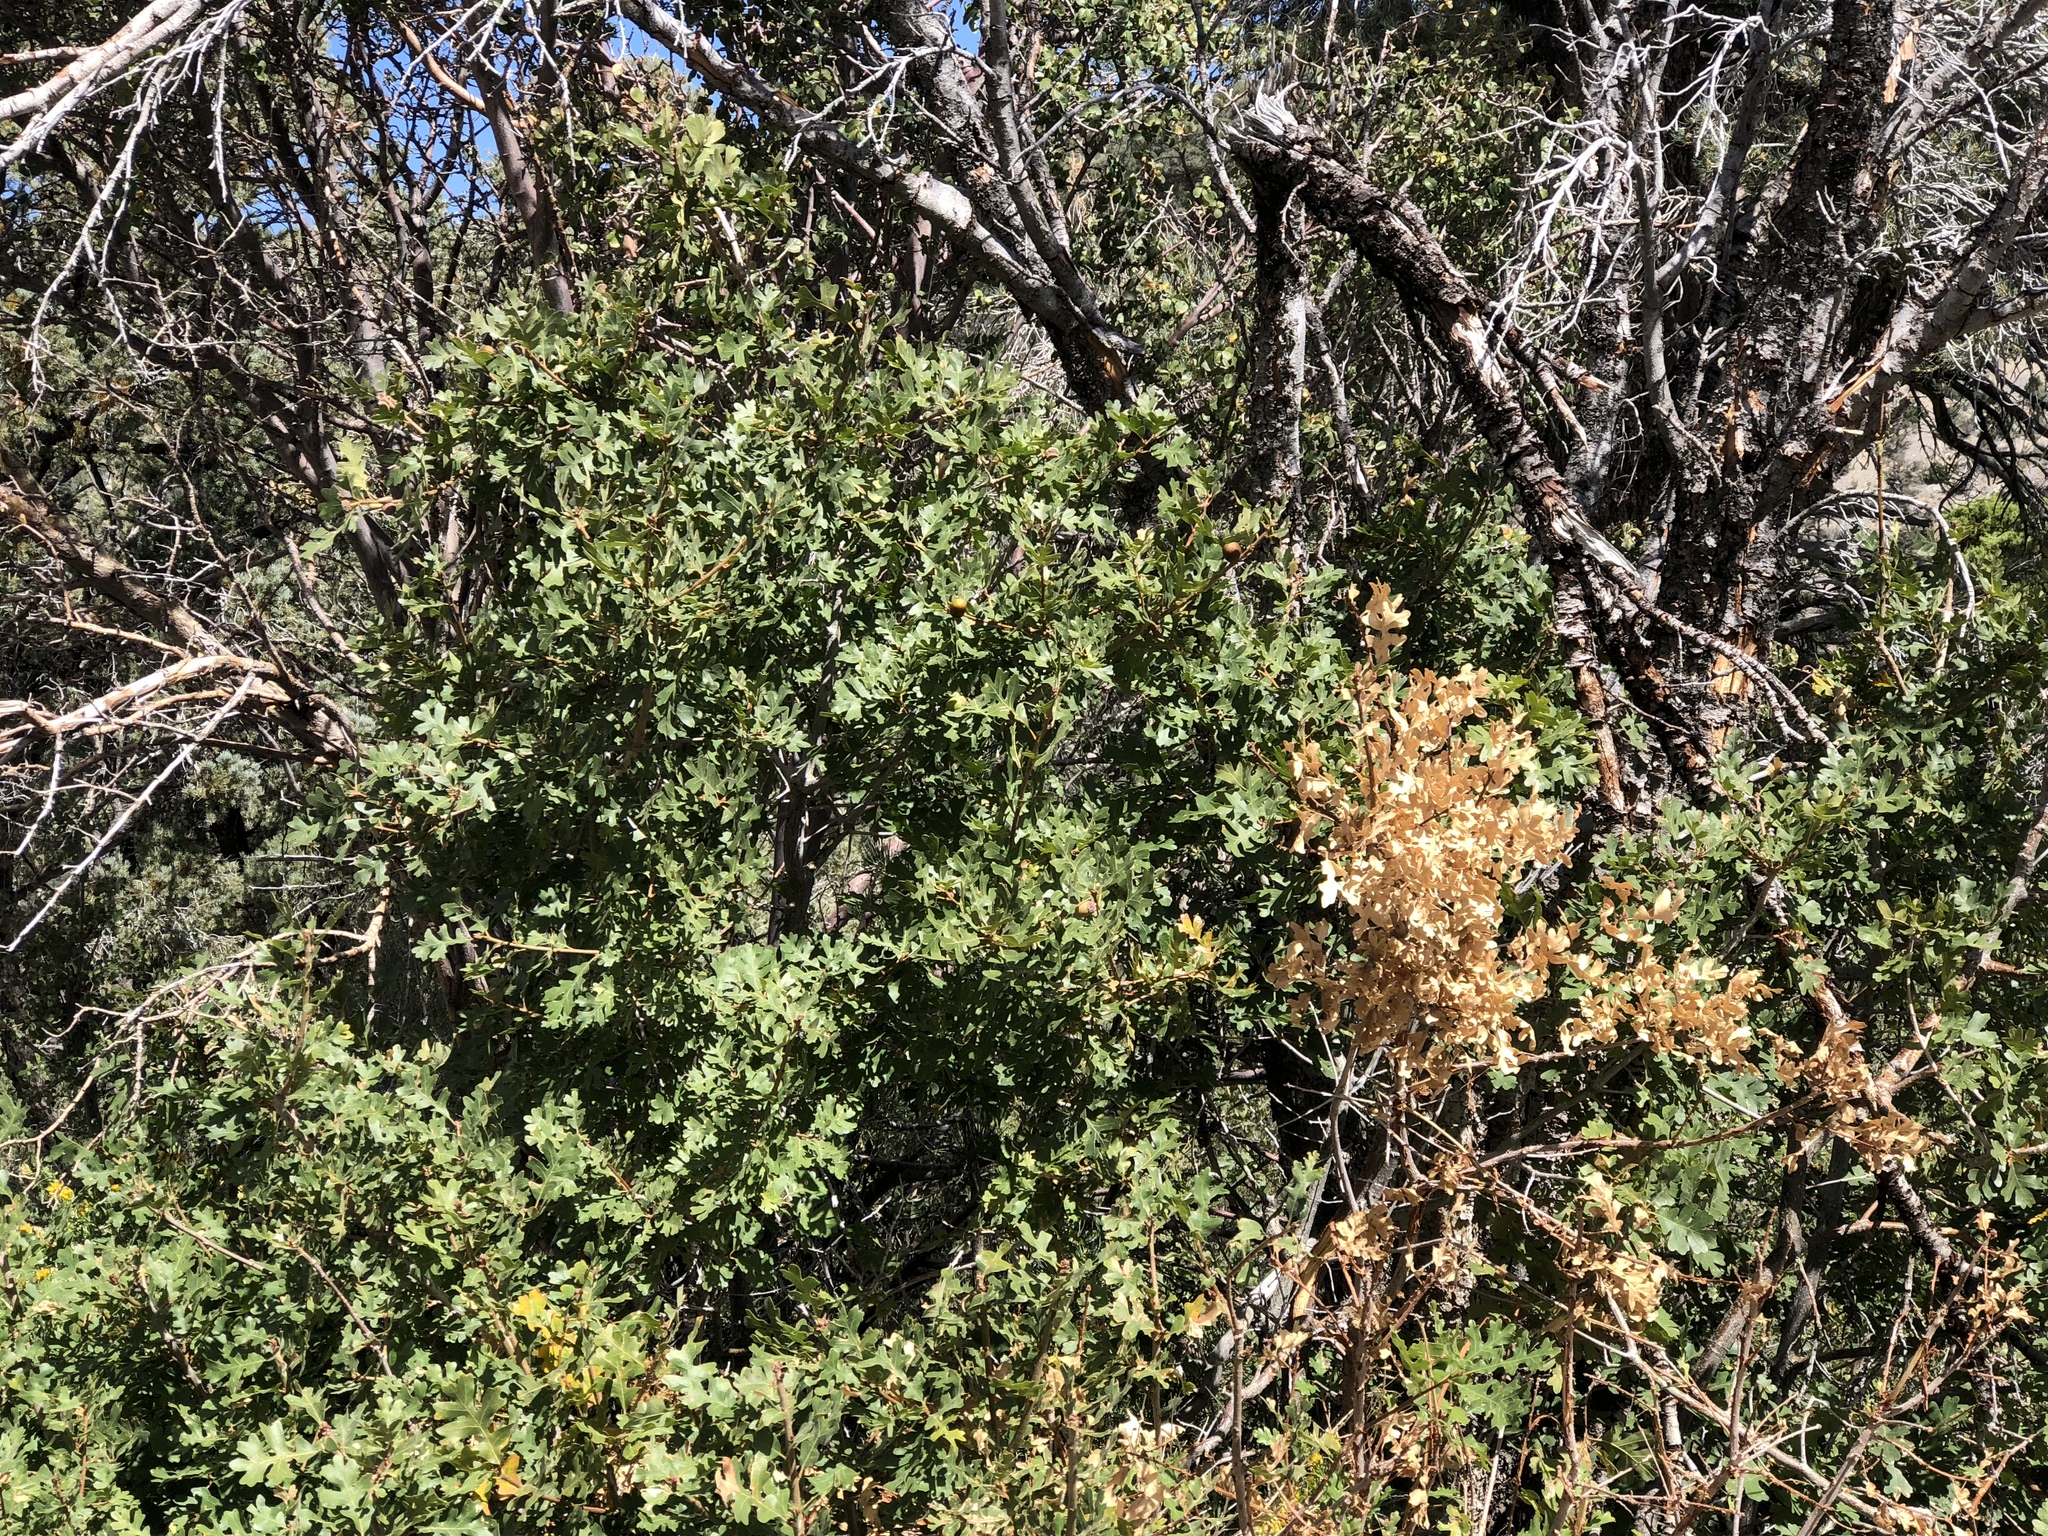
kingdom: Plantae
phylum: Tracheophyta
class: Magnoliopsida
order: Fagales
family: Fagaceae
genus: Quercus
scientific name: Quercus gambelii
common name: Gambel oak
